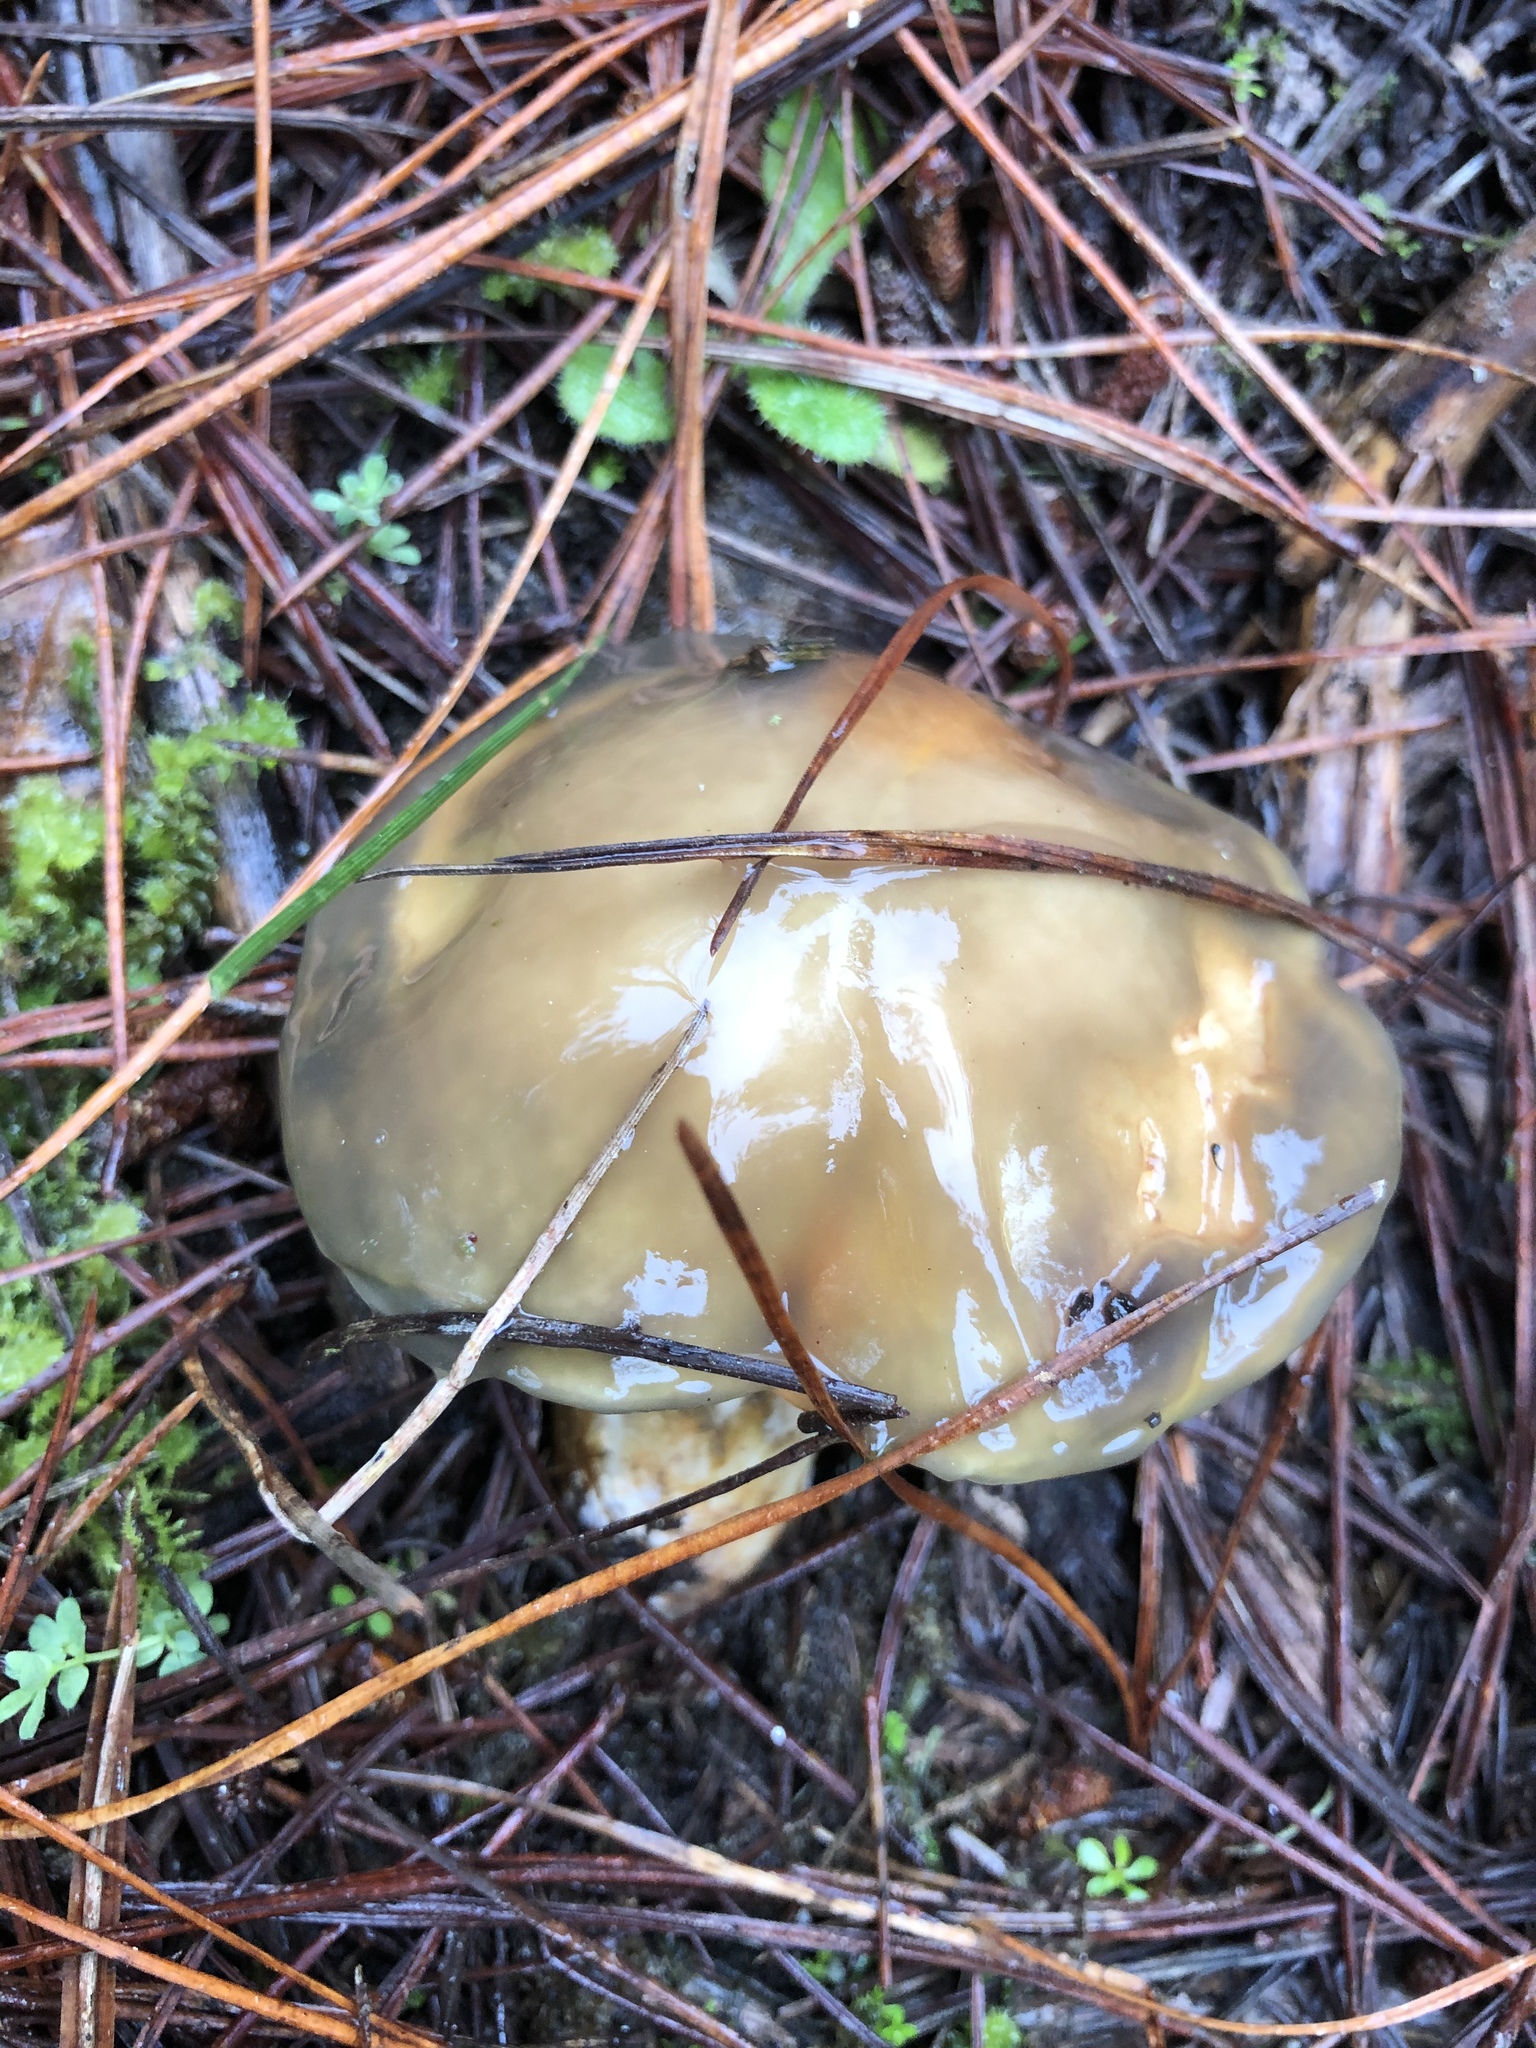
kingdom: Fungi
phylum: Basidiomycota
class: Agaricomycetes
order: Boletales
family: Suillaceae
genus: Suillus
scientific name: Suillus pungens
